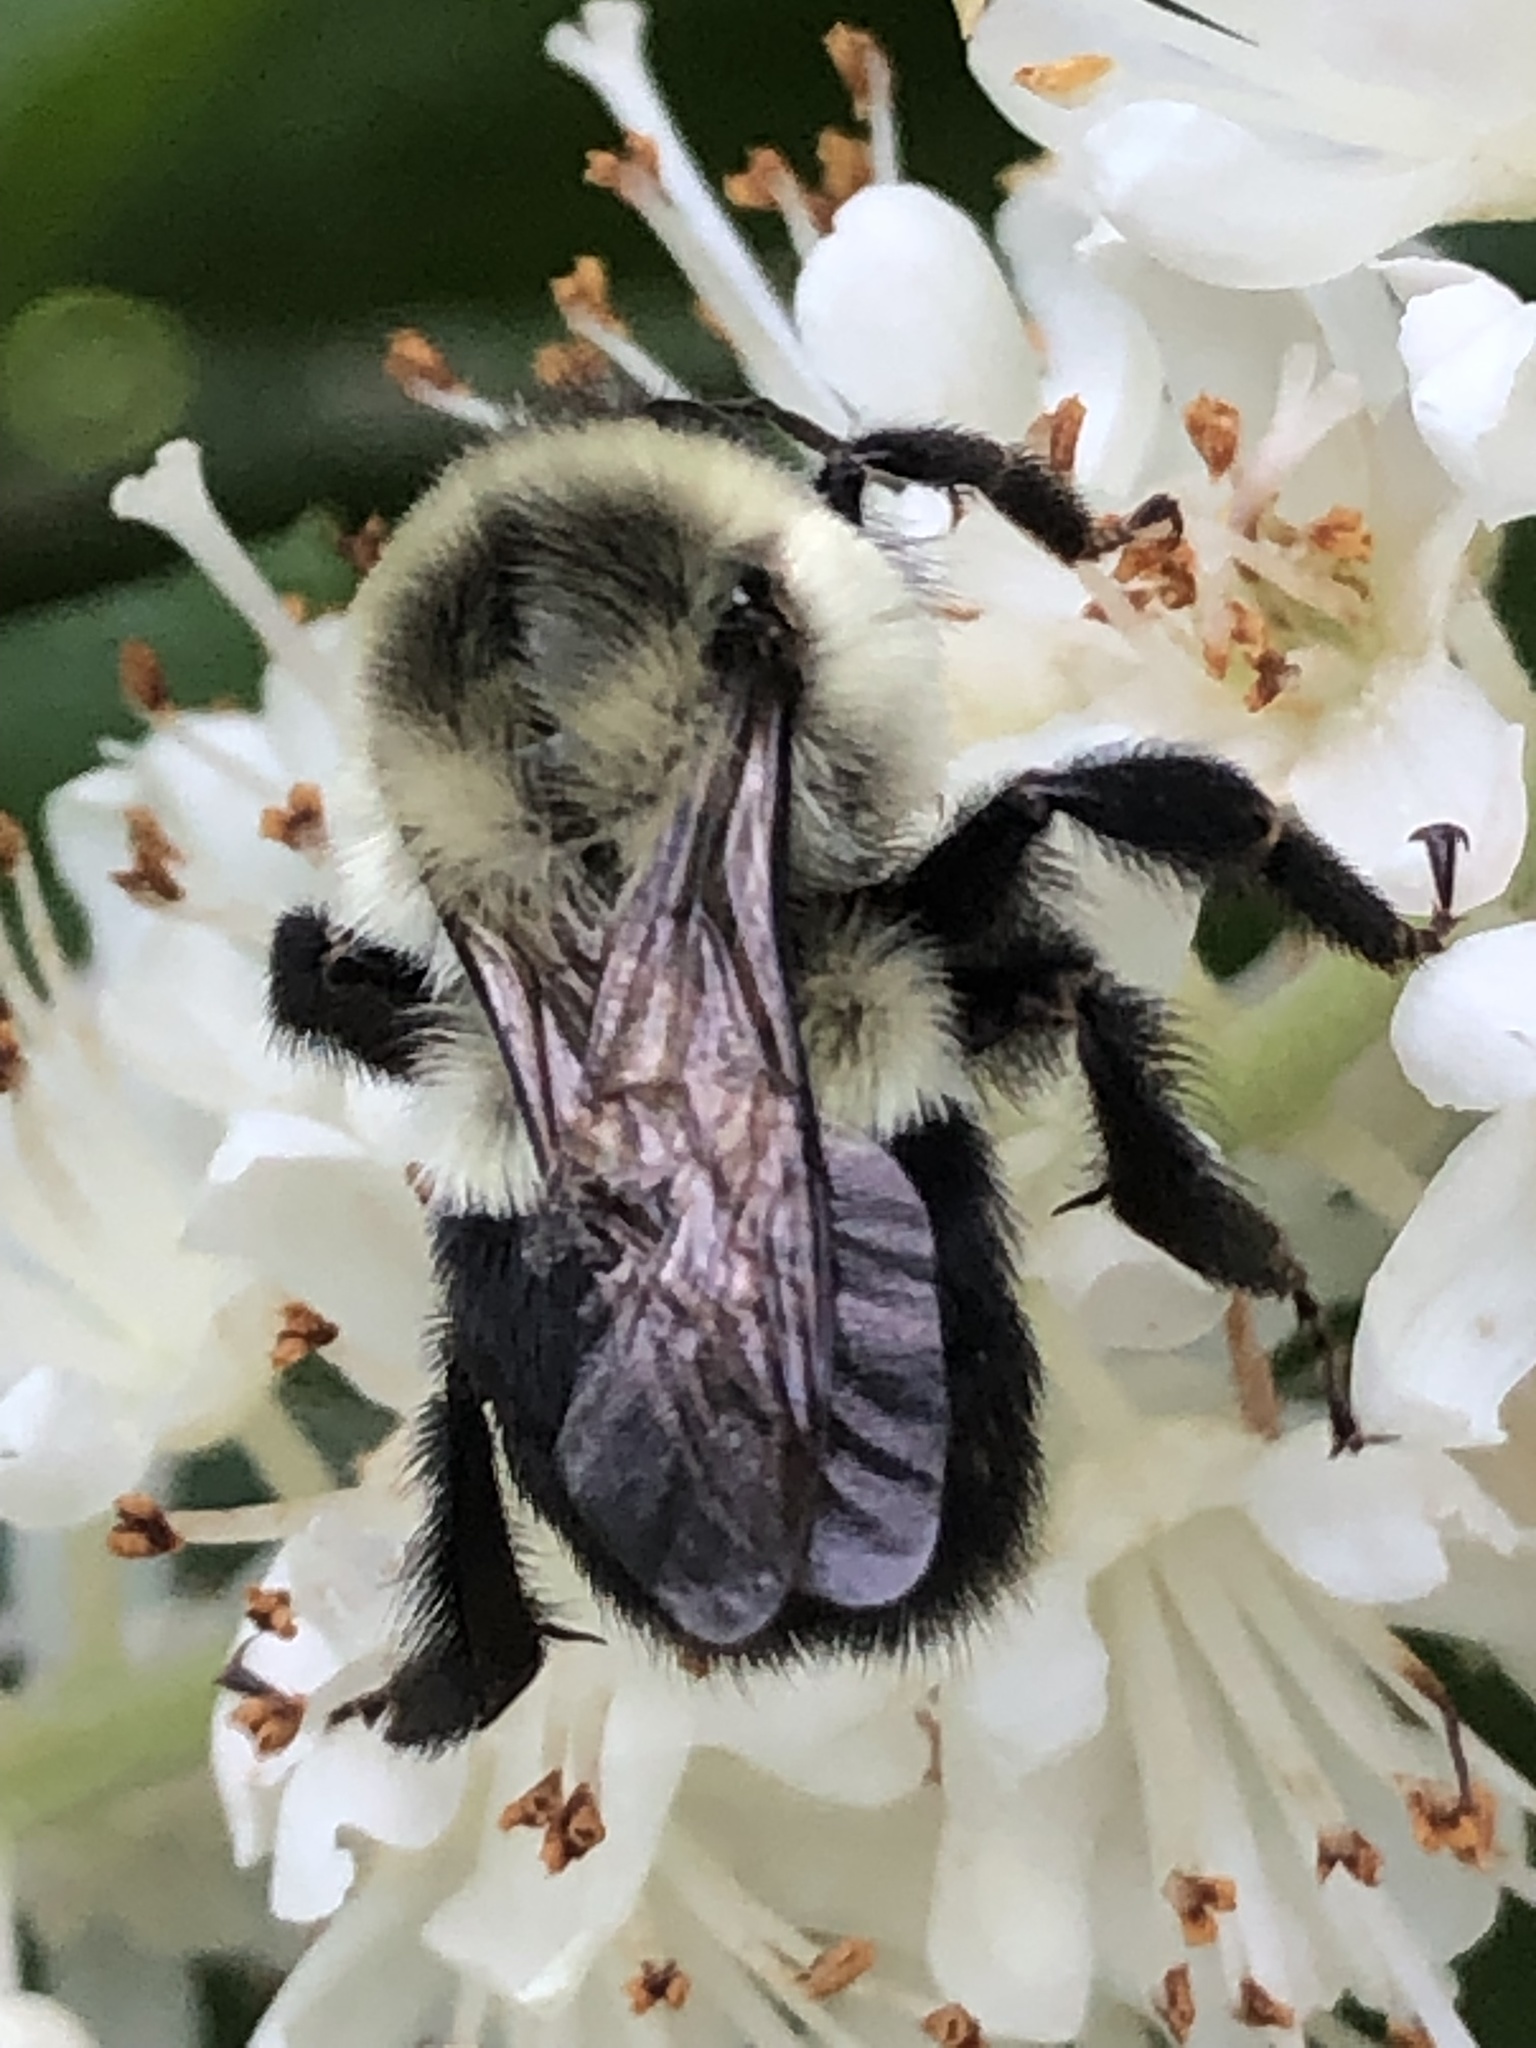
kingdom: Animalia
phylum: Arthropoda
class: Insecta
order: Hymenoptera
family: Apidae
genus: Bombus
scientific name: Bombus impatiens
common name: Common eastern bumble bee
